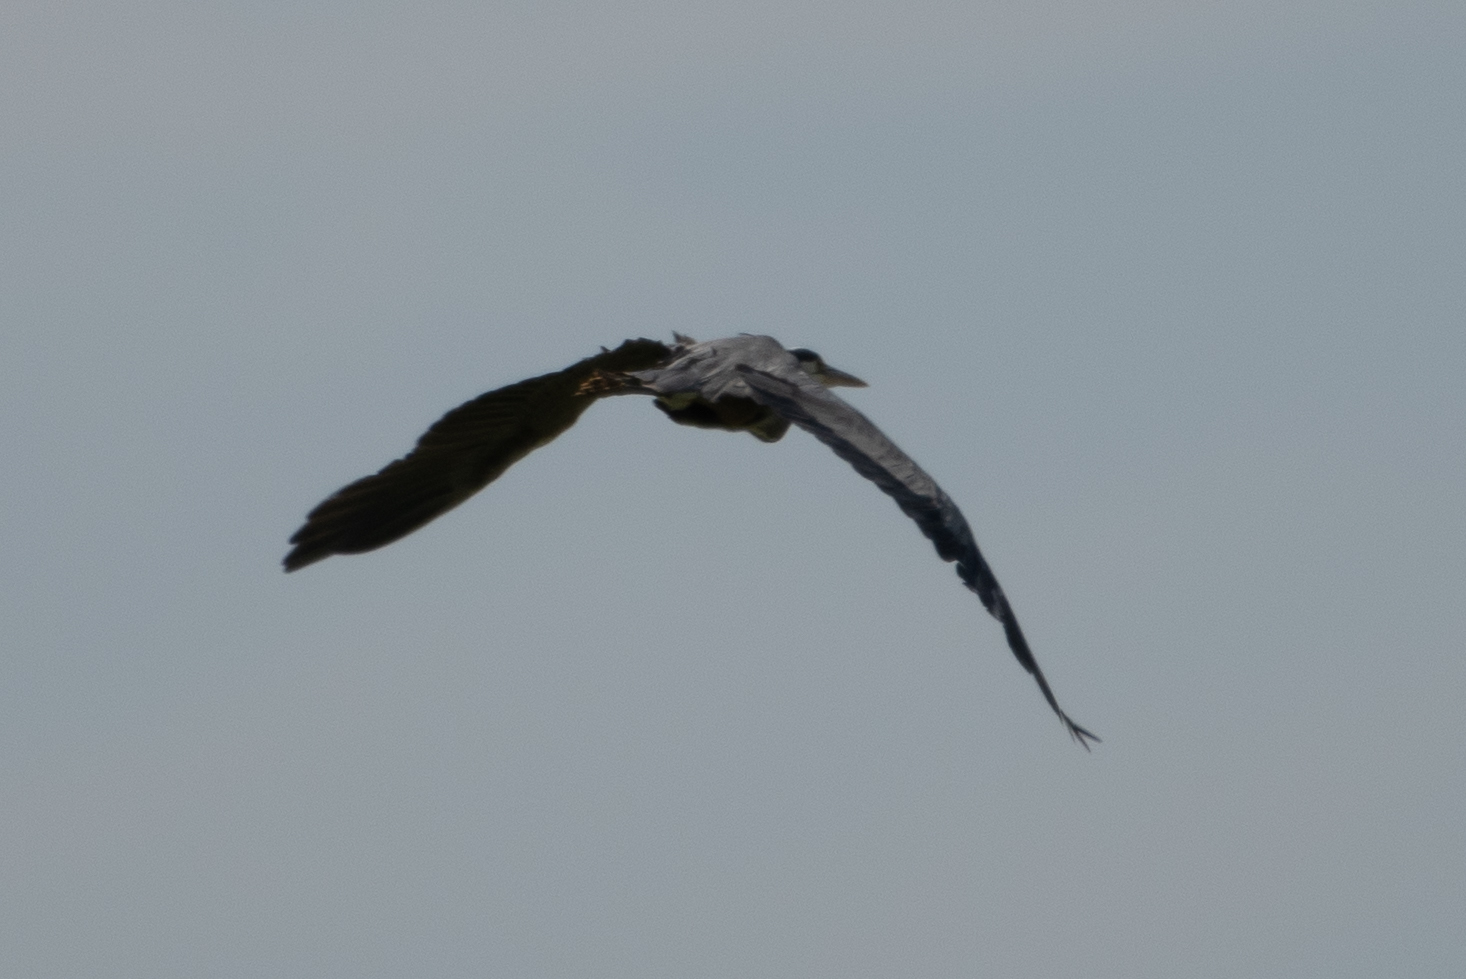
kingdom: Animalia
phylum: Chordata
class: Aves
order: Pelecaniformes
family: Ardeidae
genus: Ardea
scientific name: Ardea herodias
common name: Great blue heron
